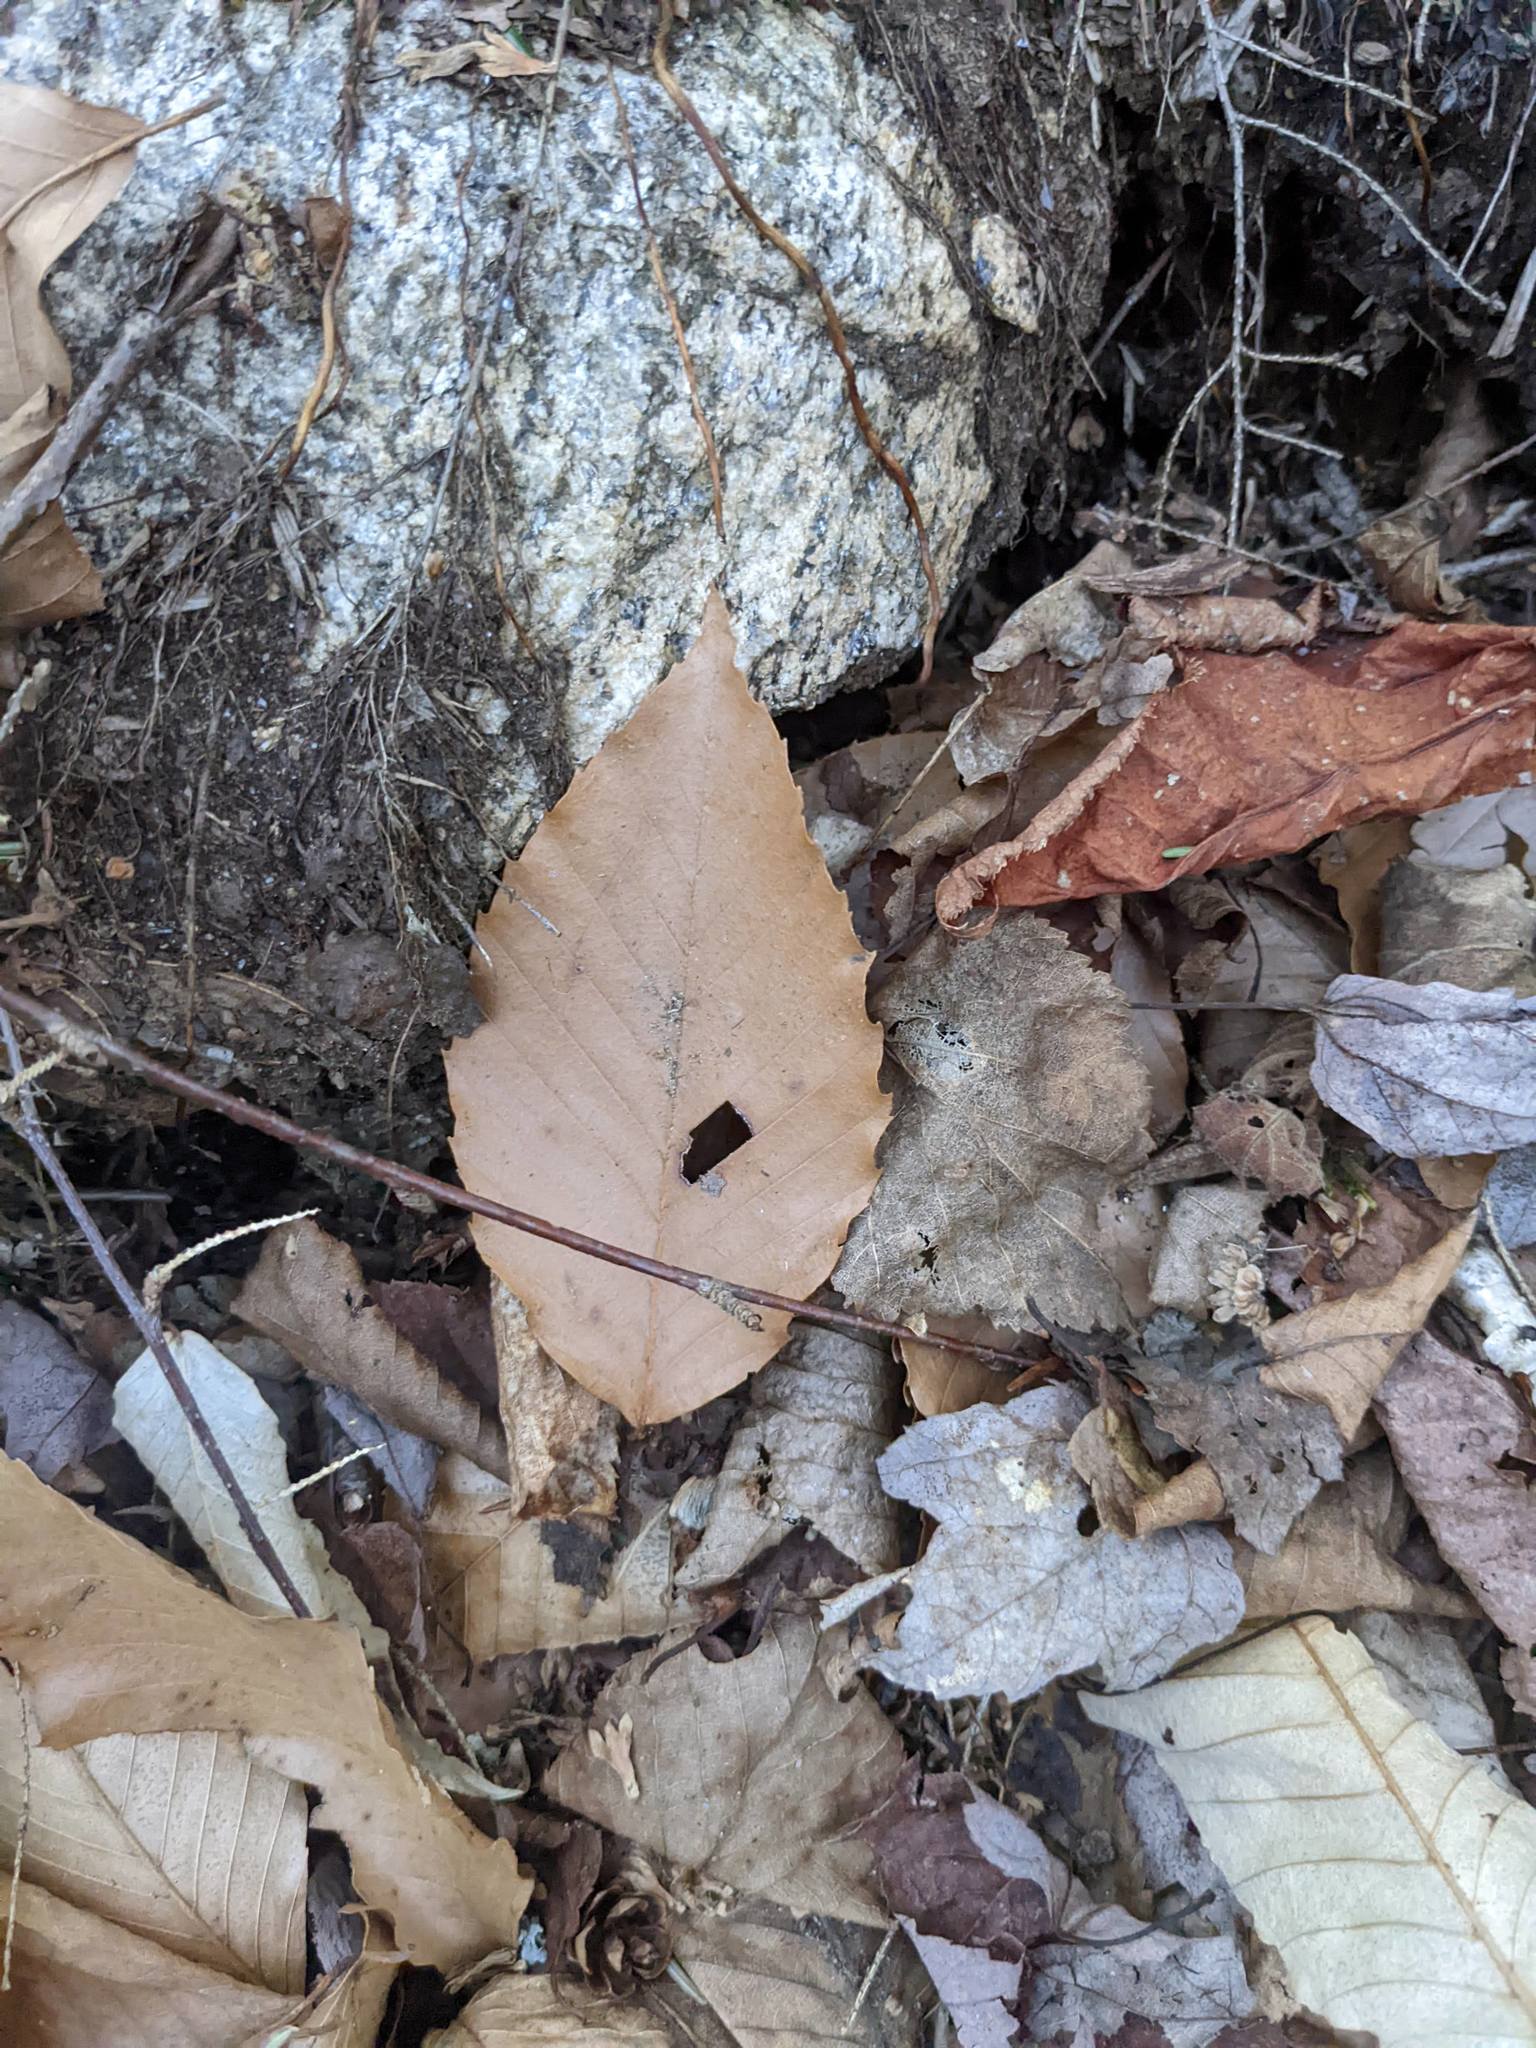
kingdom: Plantae
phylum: Tracheophyta
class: Magnoliopsida
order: Fagales
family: Fagaceae
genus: Fagus
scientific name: Fagus grandifolia
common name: American beech
